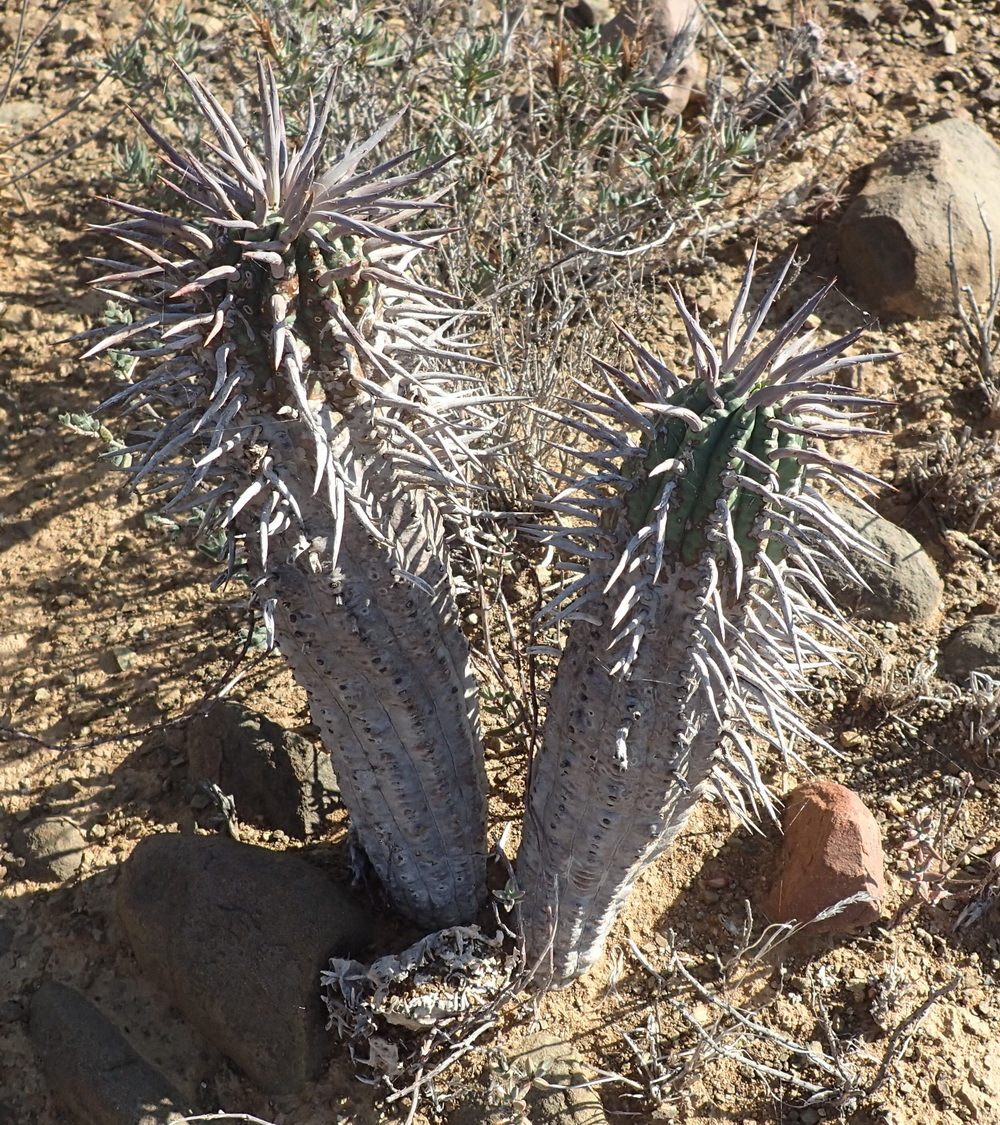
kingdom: Plantae
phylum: Tracheophyta
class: Magnoliopsida
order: Malpighiales
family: Euphorbiaceae
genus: Euphorbia
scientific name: Euphorbia ferox
